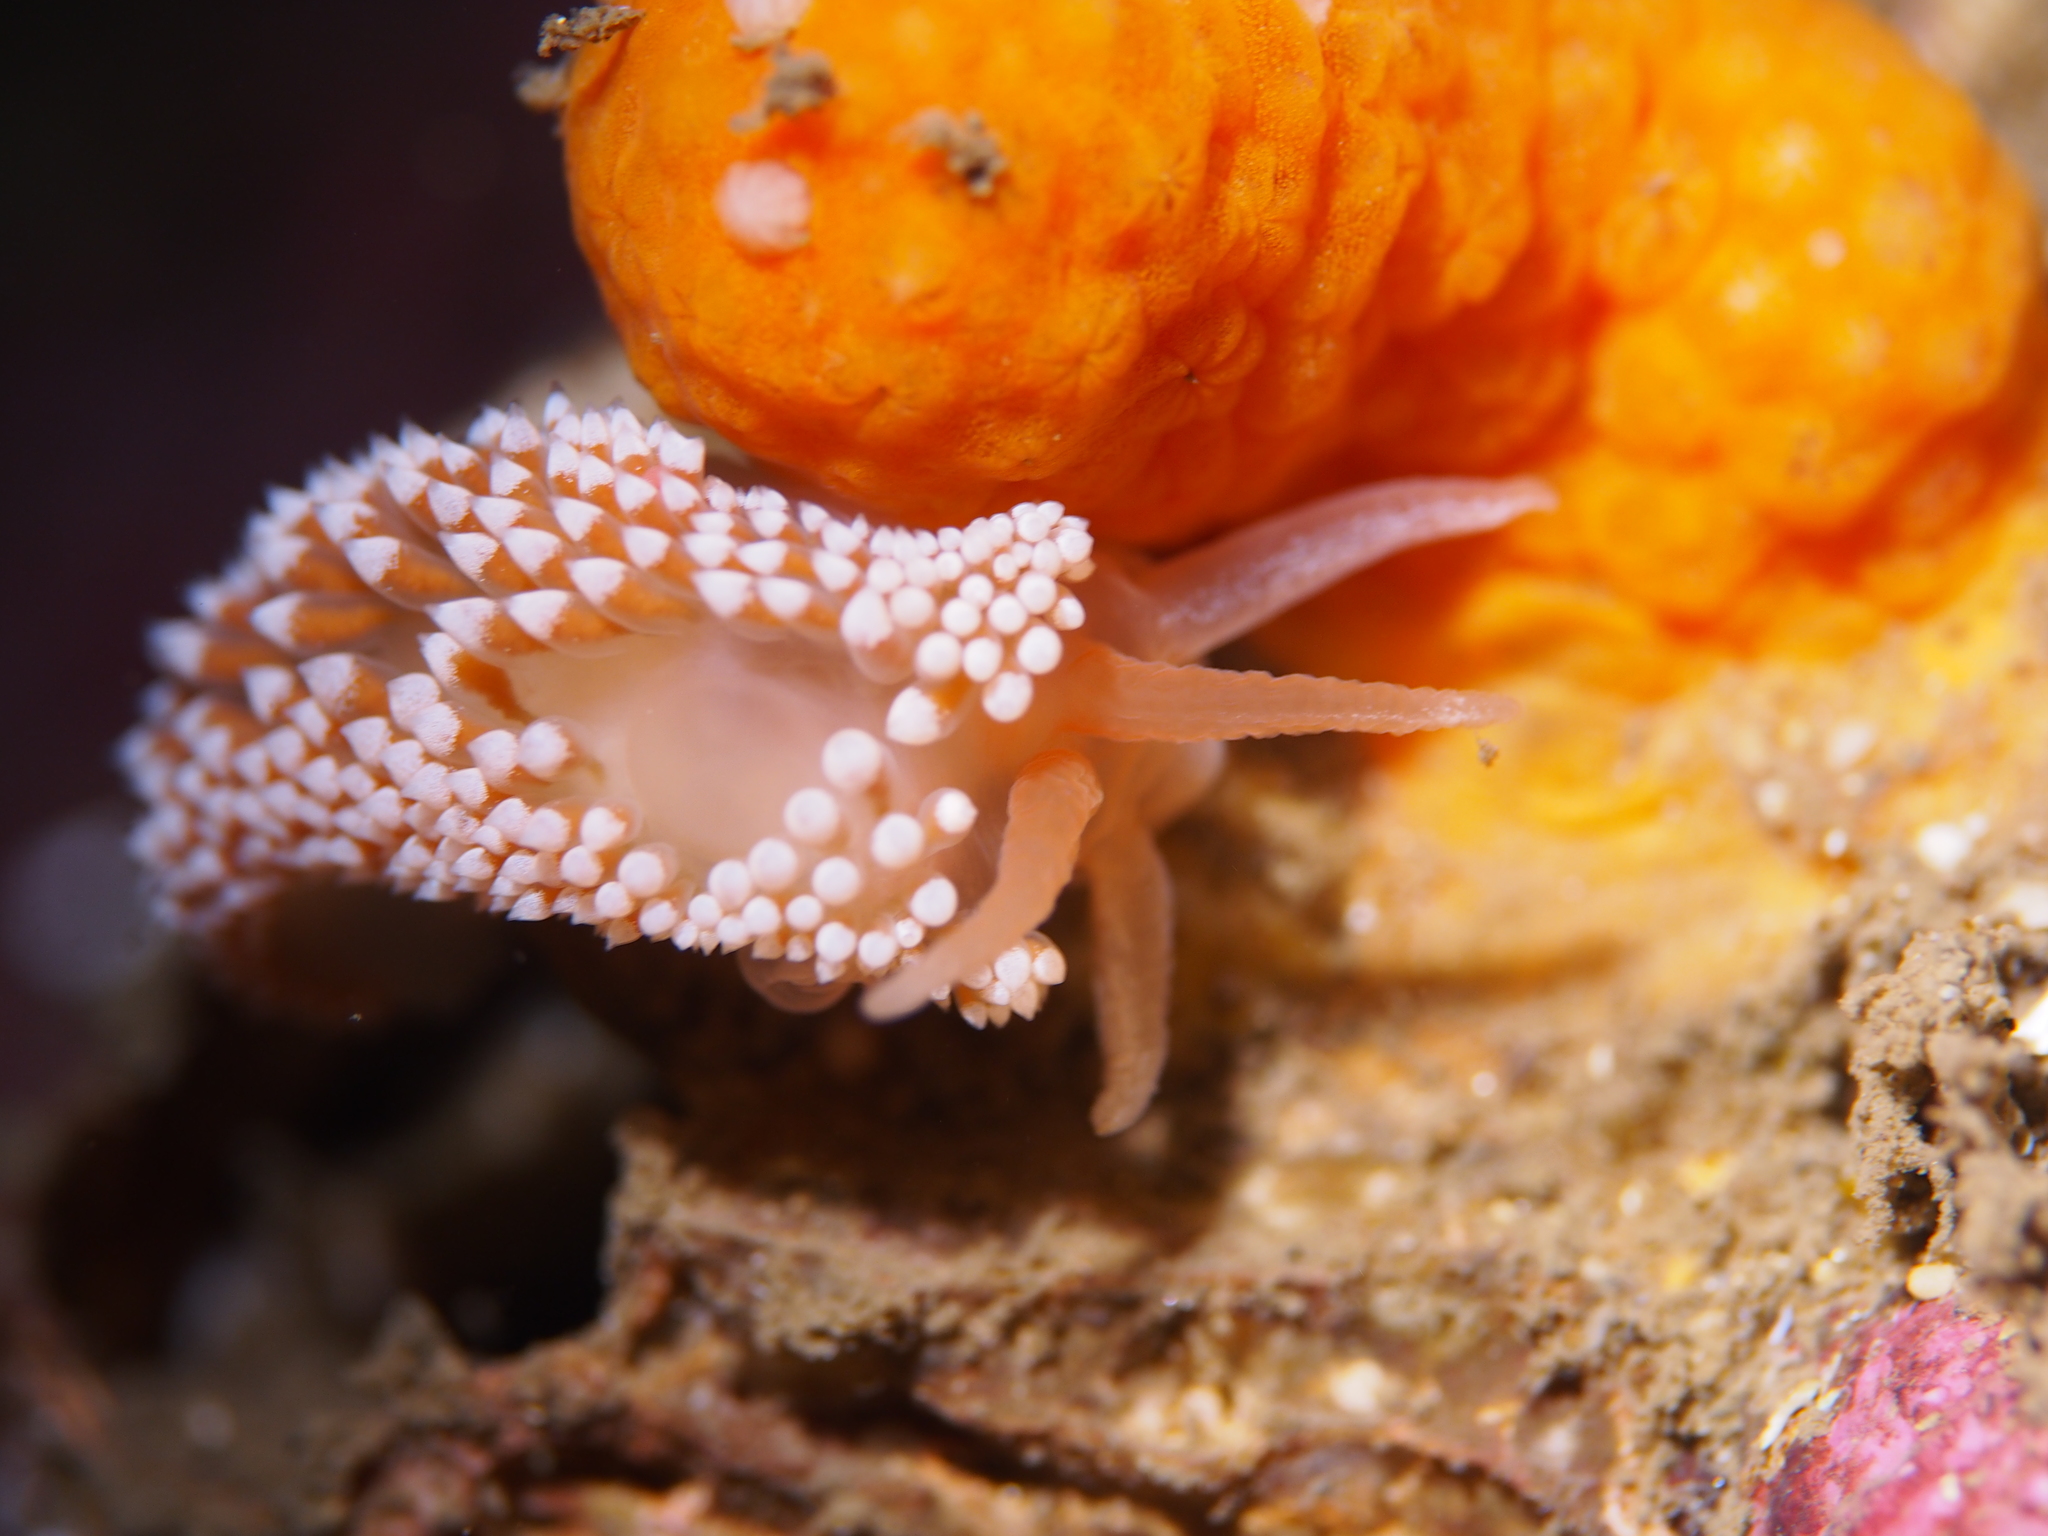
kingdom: Animalia
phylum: Mollusca
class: Gastropoda
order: Nudibranchia
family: Coryphellidae
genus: Coryphella
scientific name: Coryphella verrucosa
